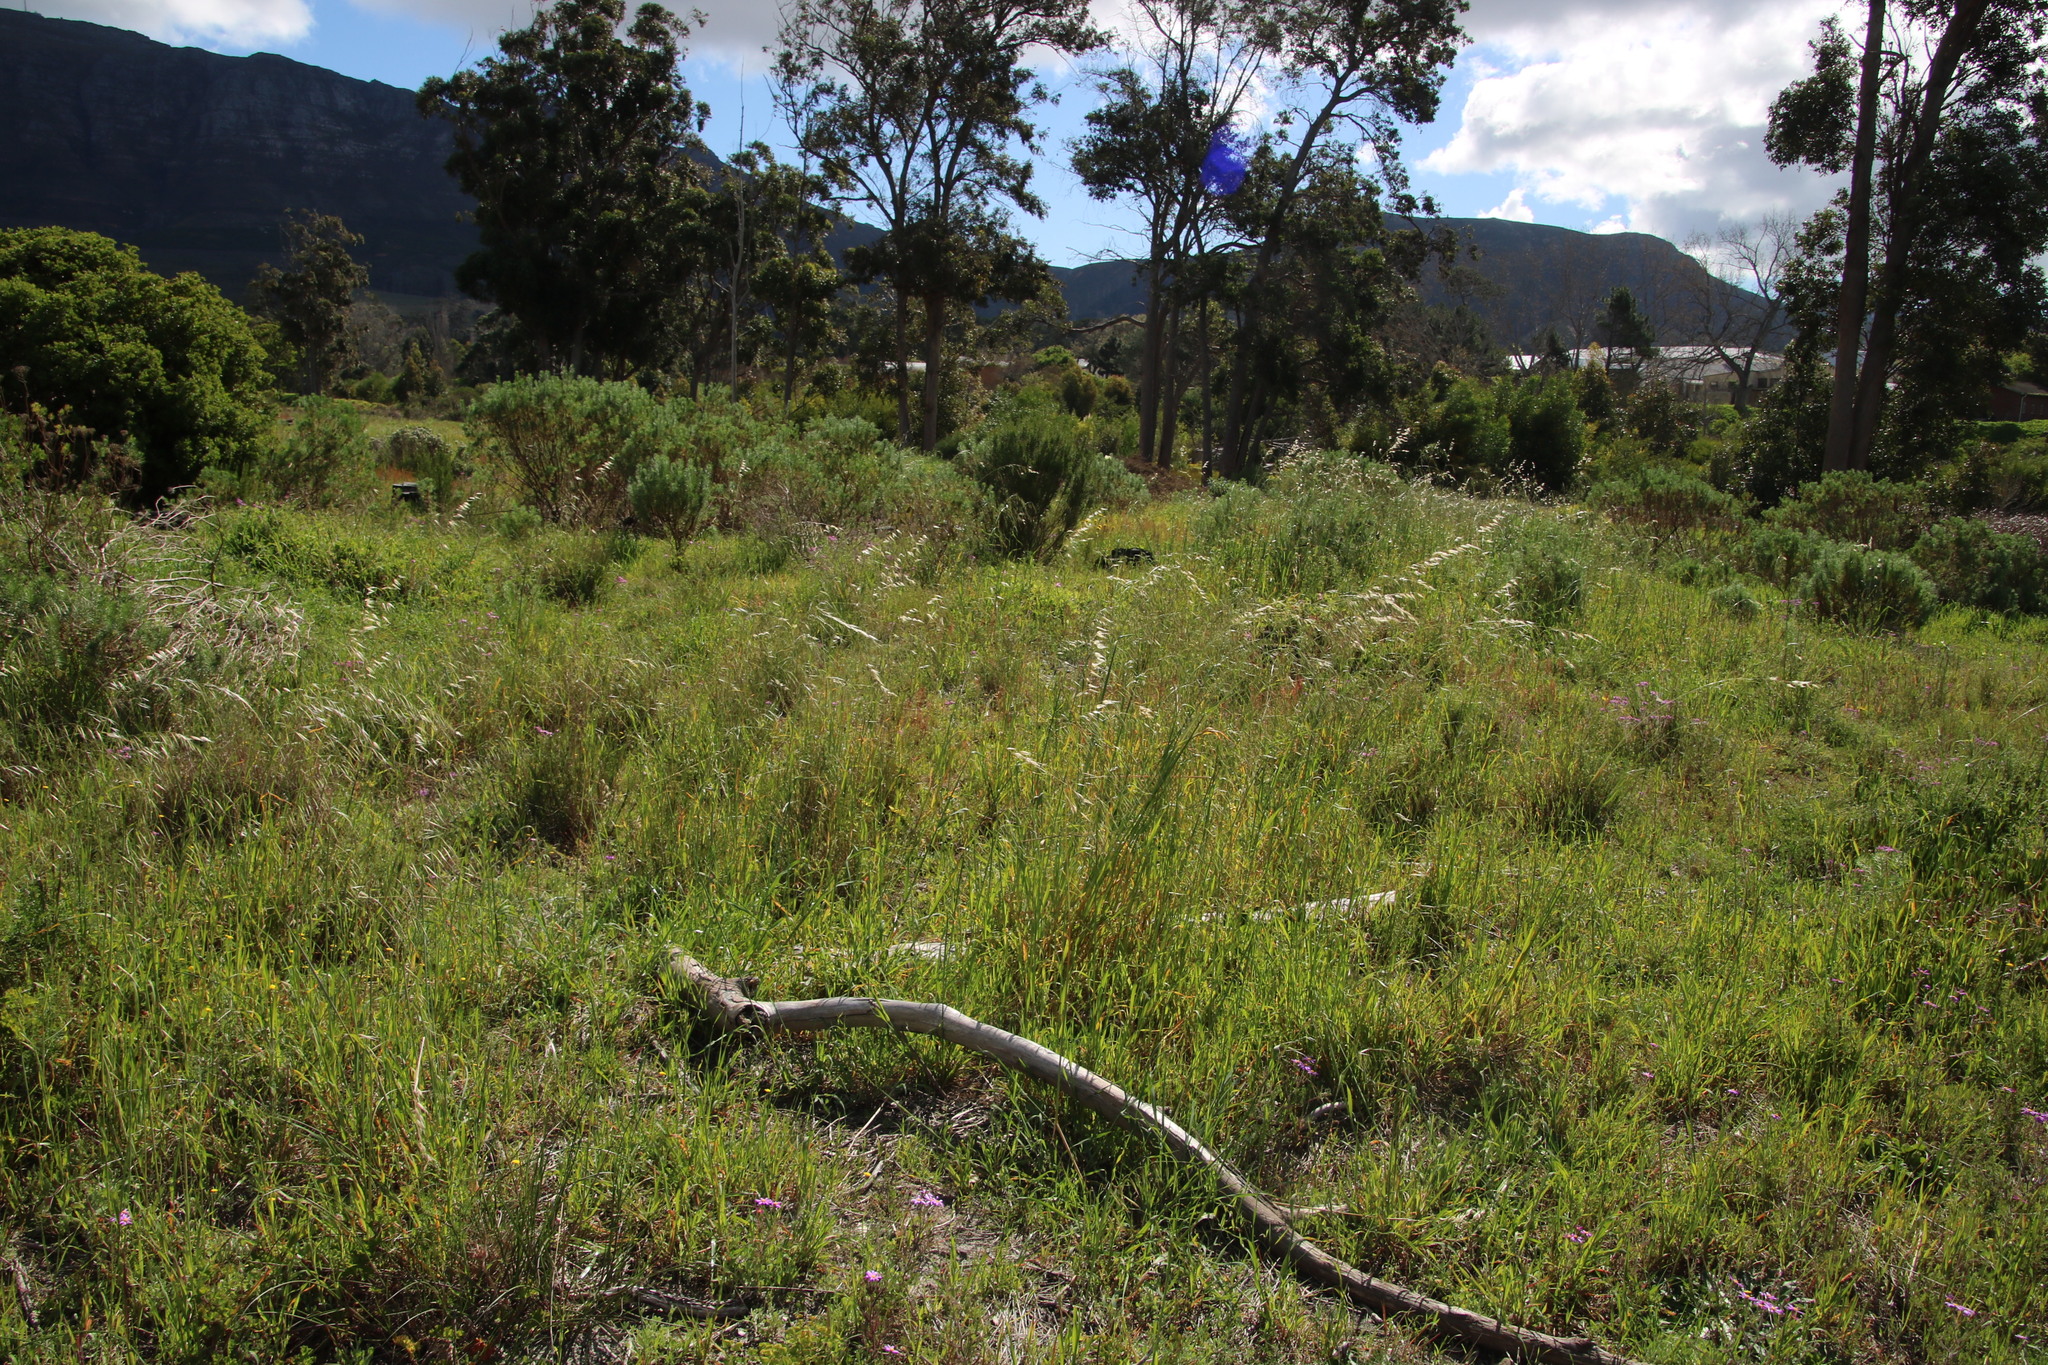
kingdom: Plantae
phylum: Tracheophyta
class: Liliopsida
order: Poales
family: Poaceae
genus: Ehrharta
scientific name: Ehrharta longiflora
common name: Longflowered veldtgrass
